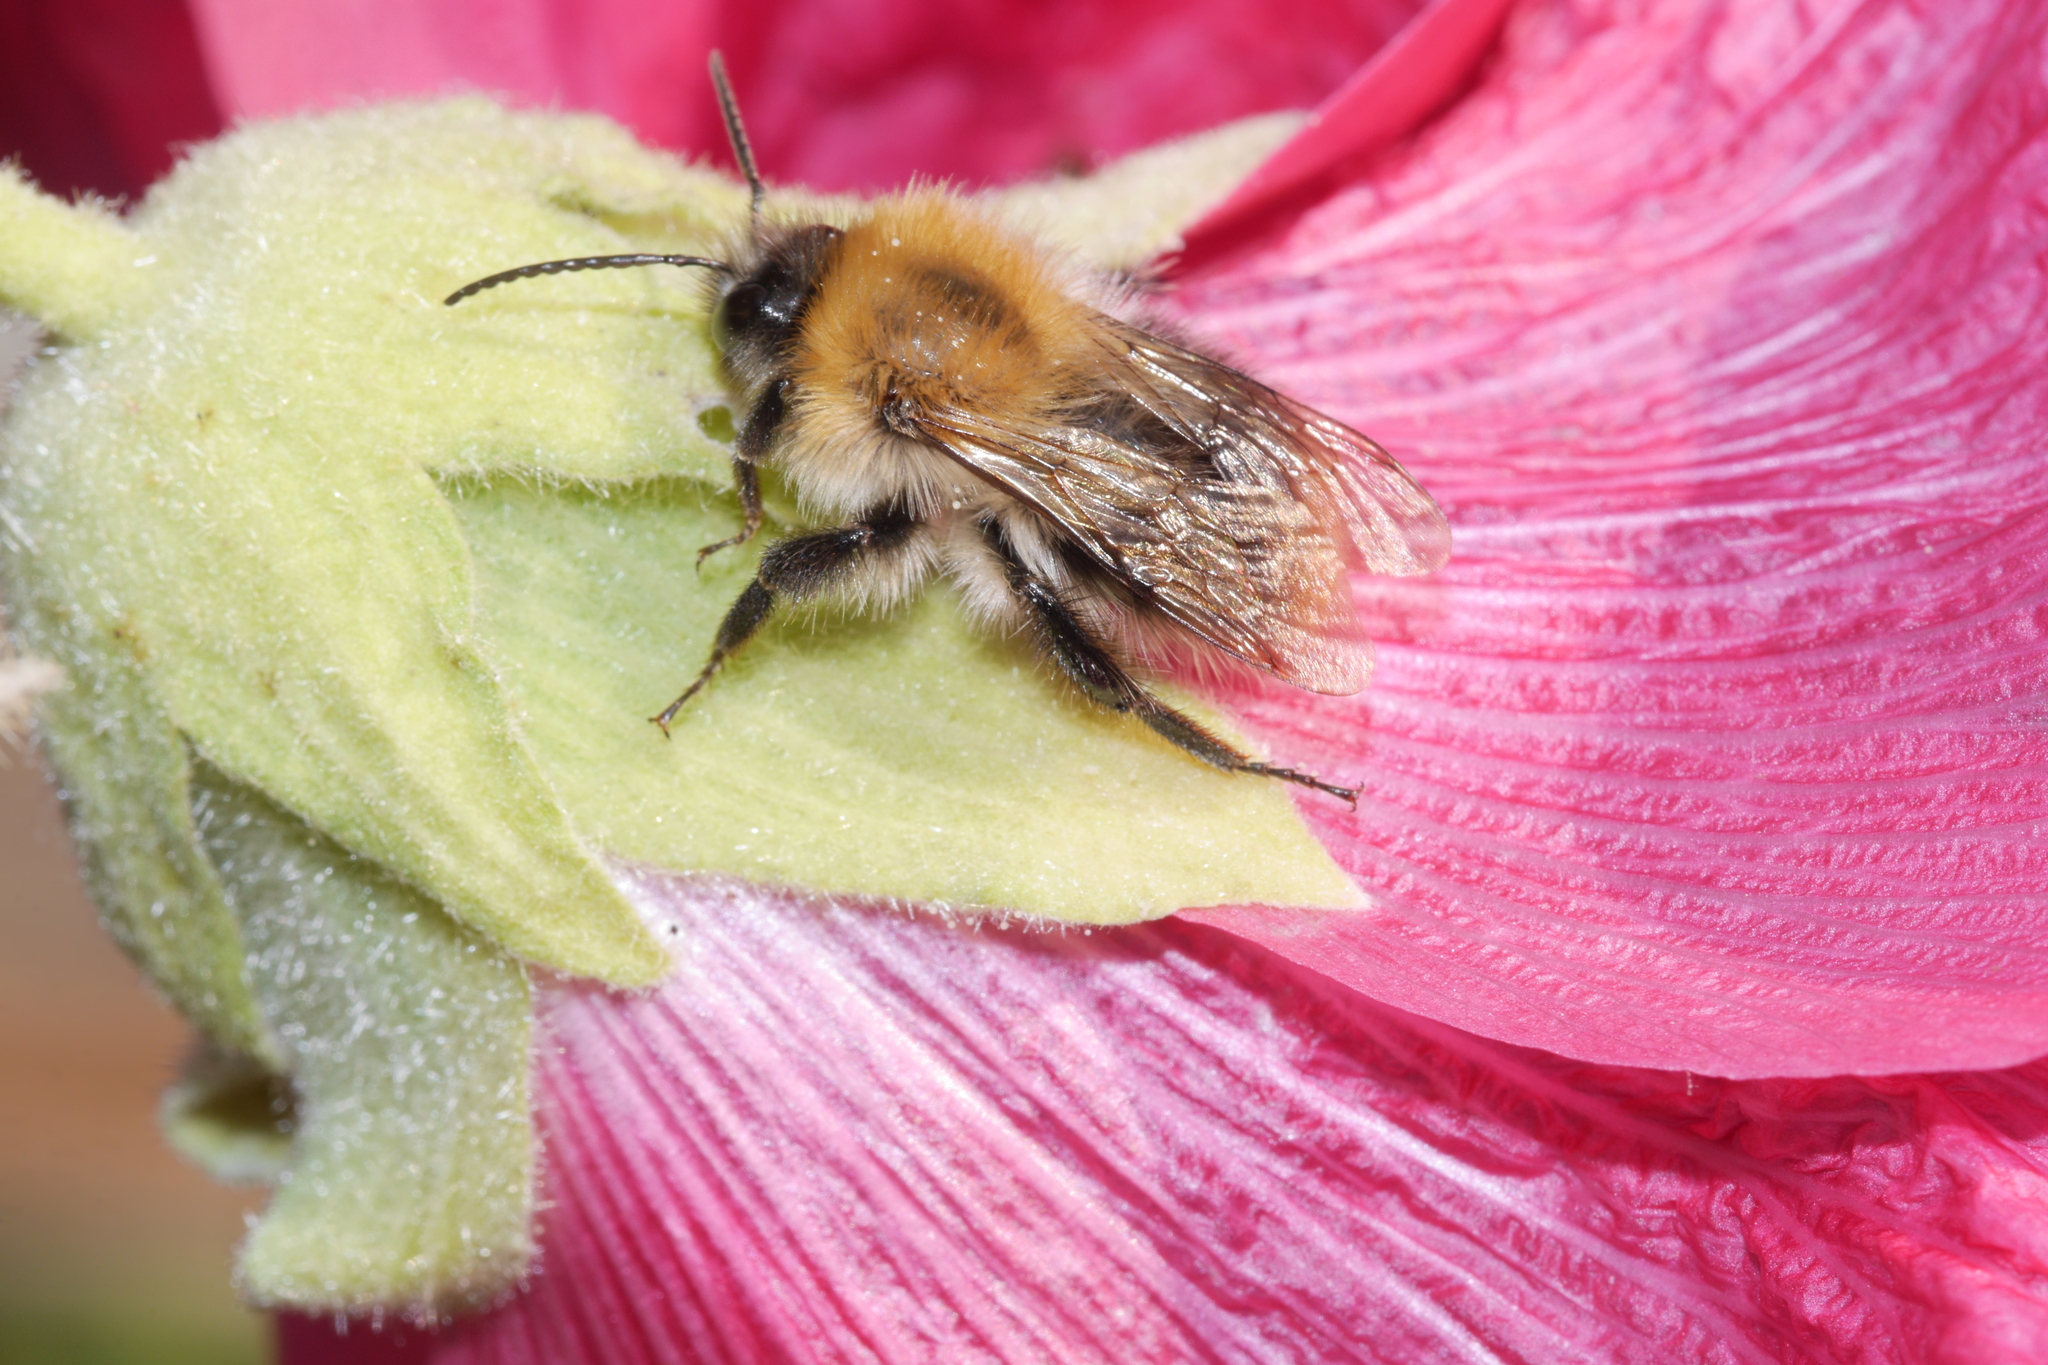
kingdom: Animalia
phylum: Arthropoda
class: Insecta
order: Hymenoptera
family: Apidae
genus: Bombus
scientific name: Bombus pascuorum
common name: Common carder bee
